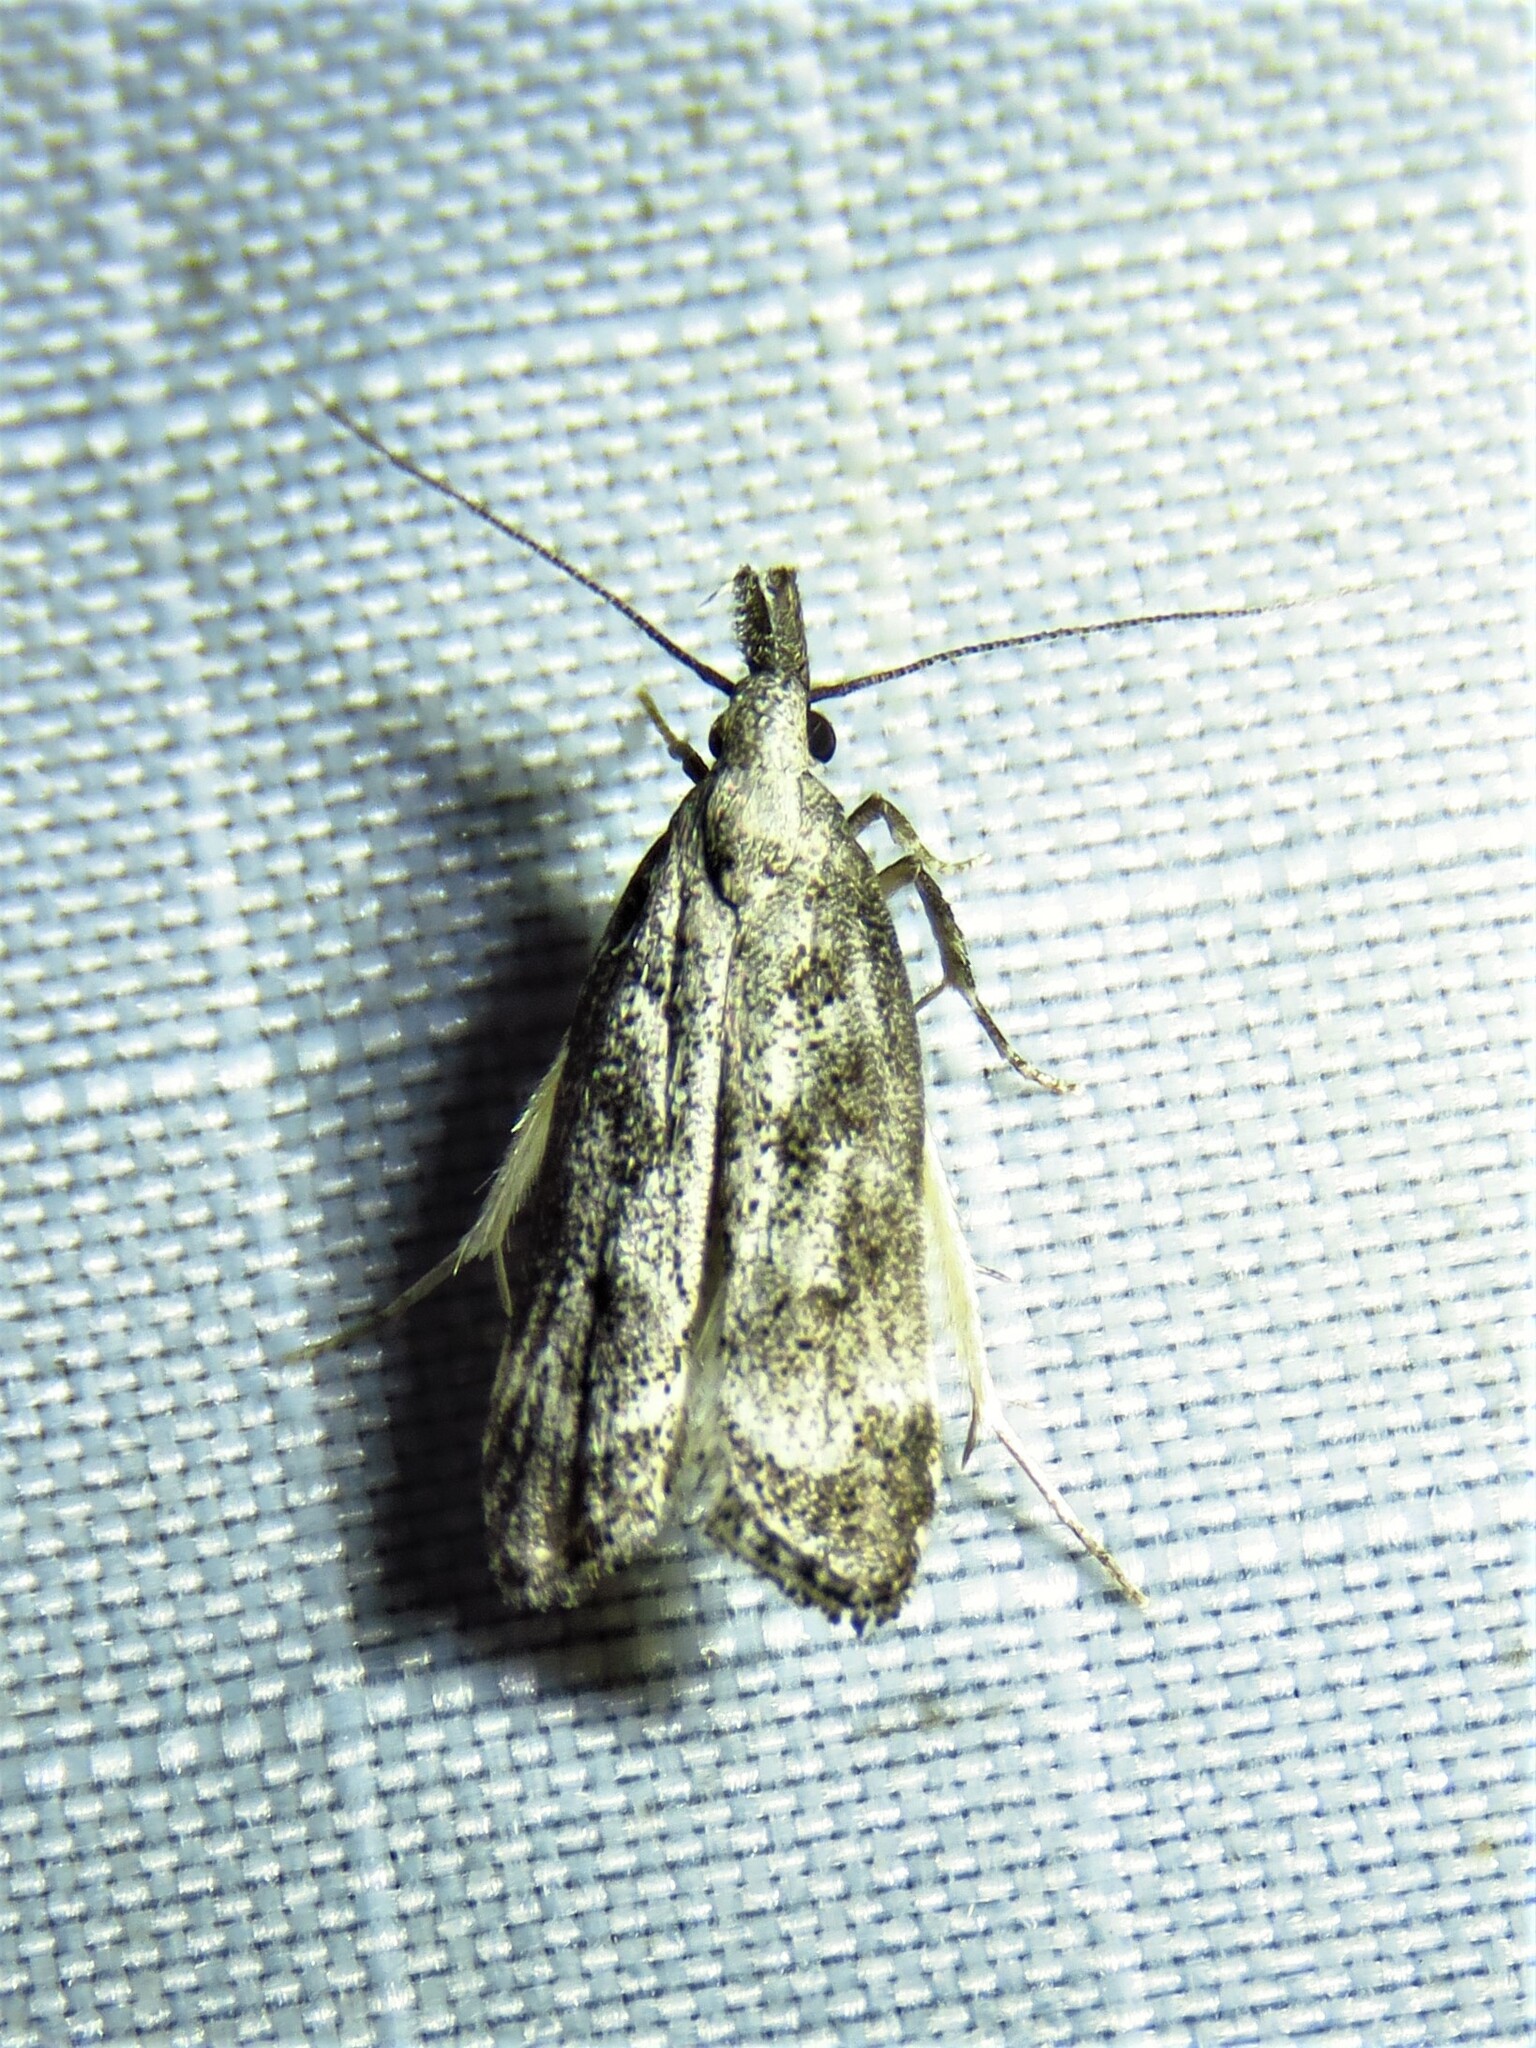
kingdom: Animalia
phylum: Arthropoda
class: Insecta
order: Lepidoptera
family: Gelechiidae
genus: Dichomeris
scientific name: Dichomeris inversella
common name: Inverse dichomeris moth
